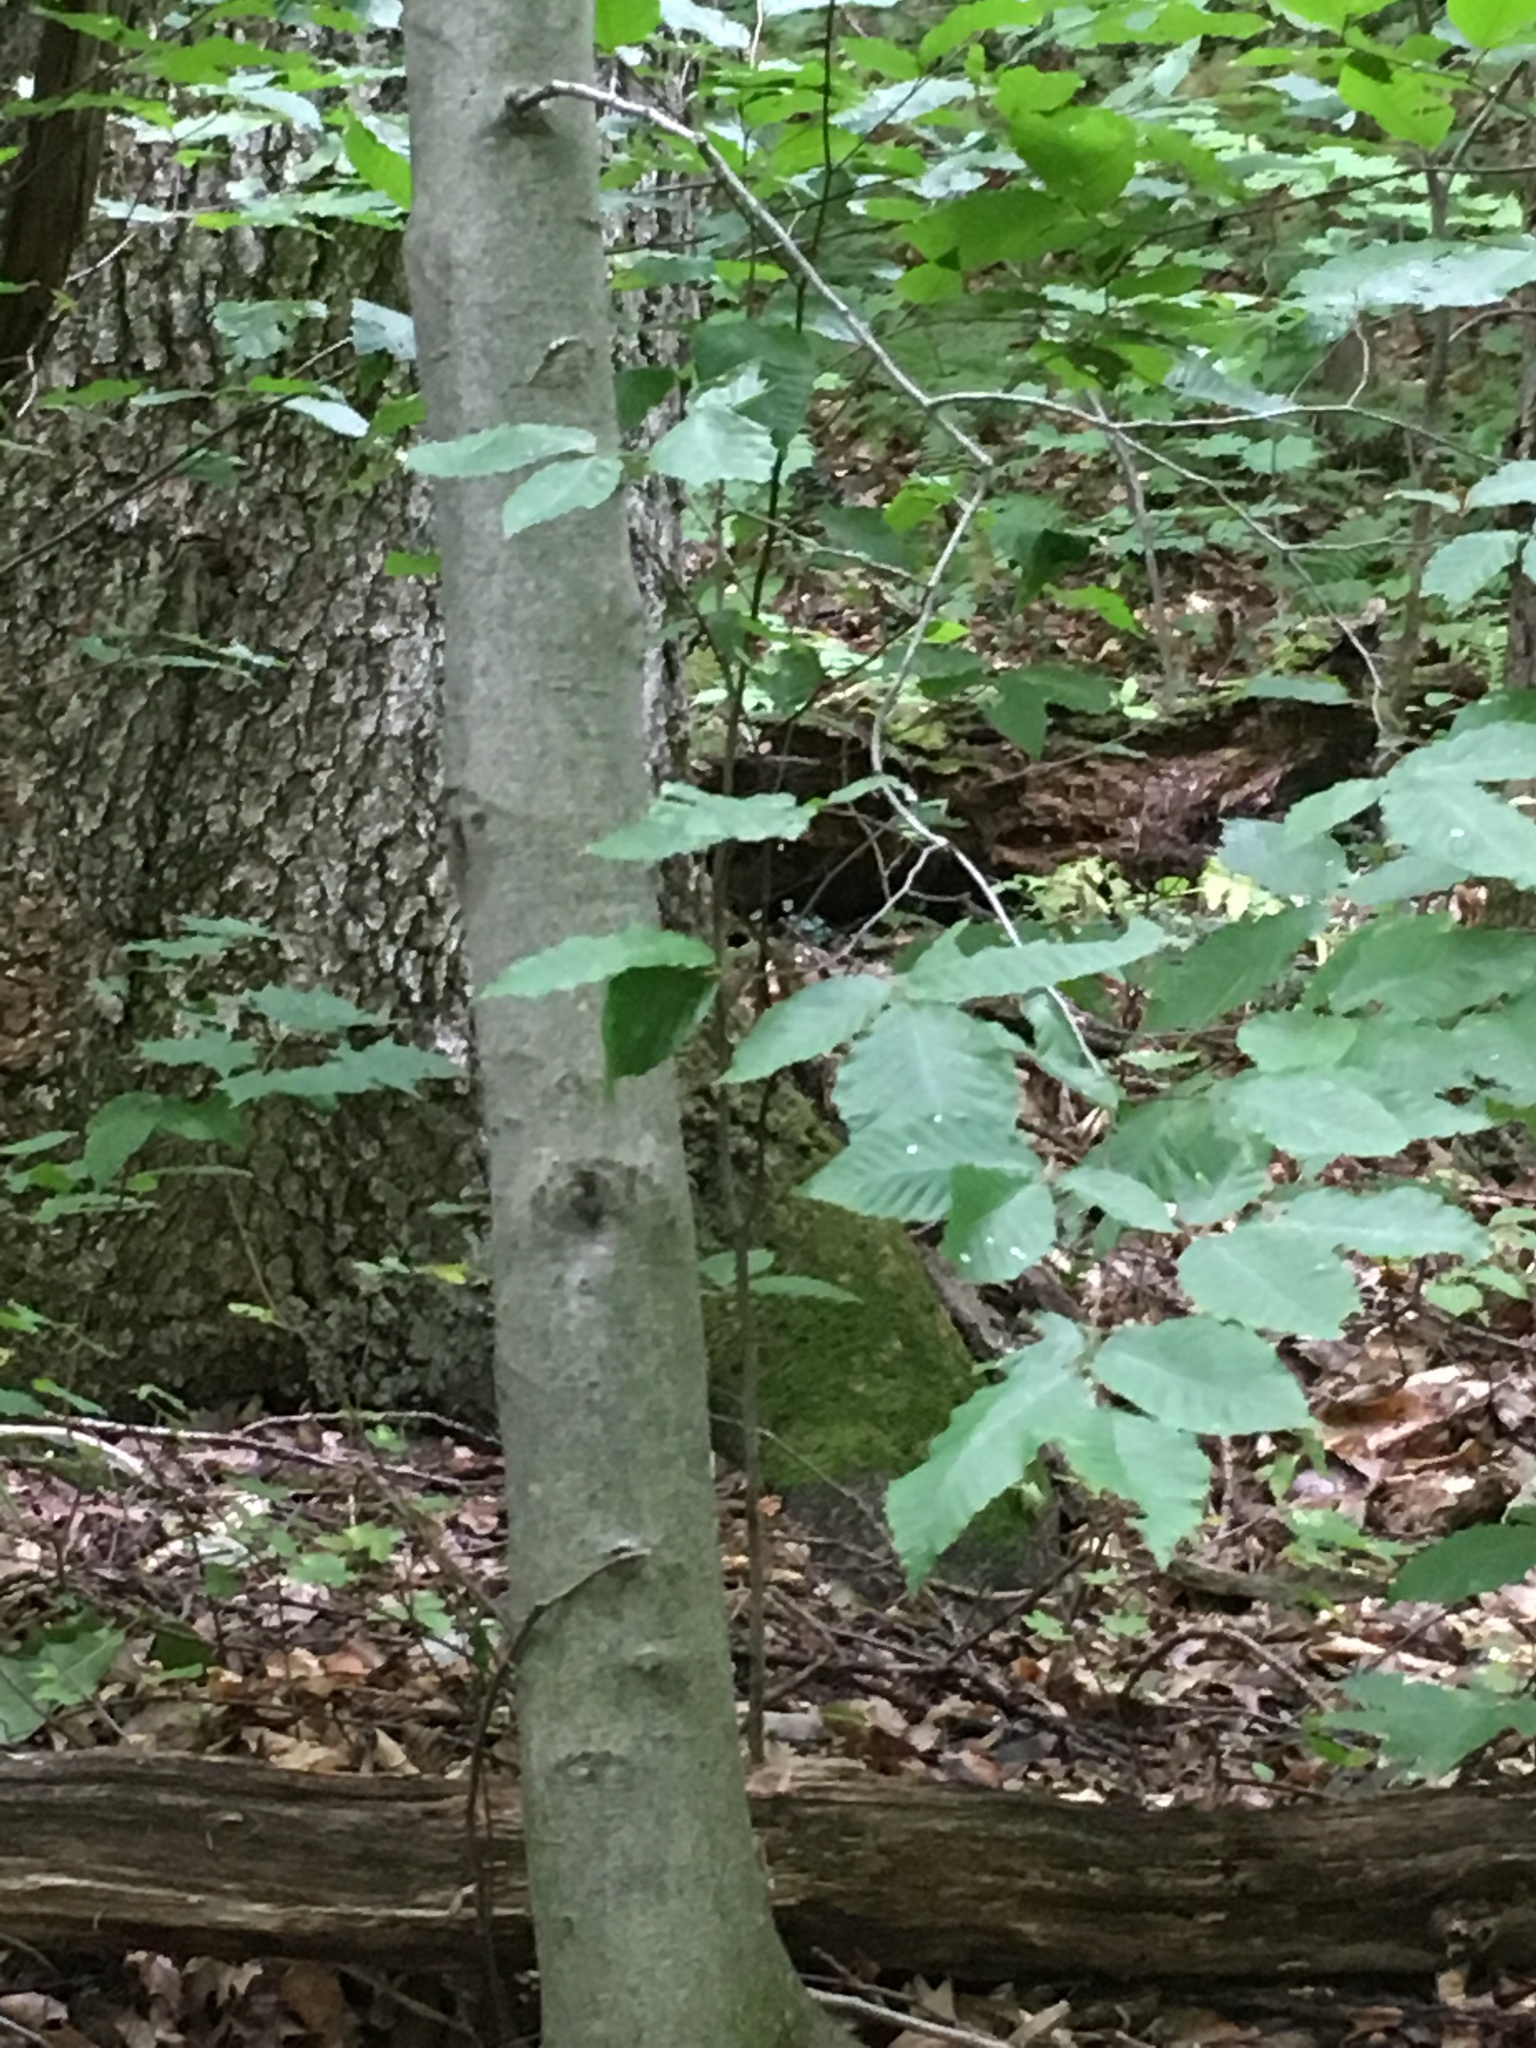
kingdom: Plantae
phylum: Tracheophyta
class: Magnoliopsida
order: Fagales
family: Fagaceae
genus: Fagus
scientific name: Fagus grandifolia
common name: American beech
